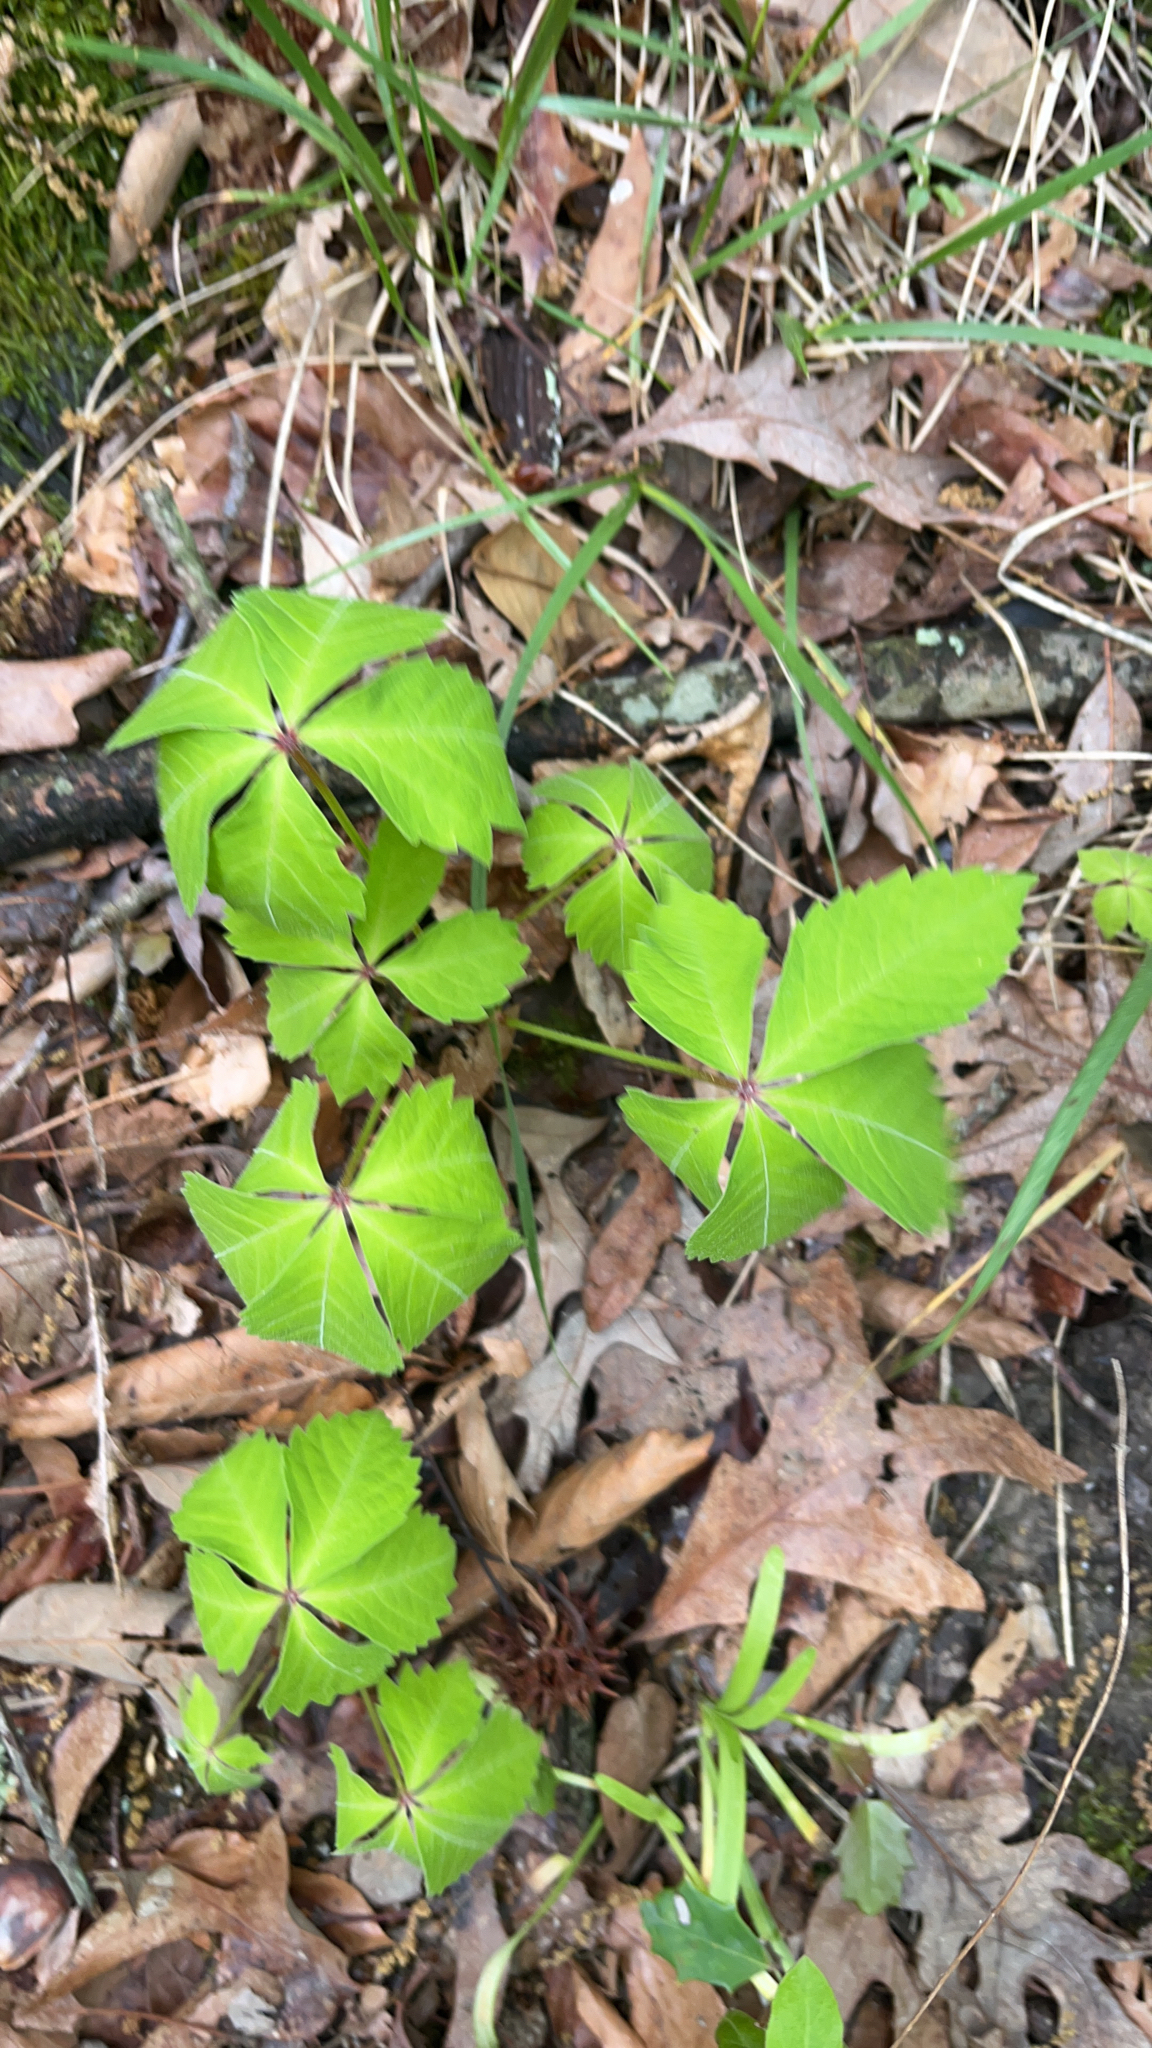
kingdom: Plantae
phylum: Tracheophyta
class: Magnoliopsida
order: Vitales
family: Vitaceae
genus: Parthenocissus
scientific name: Parthenocissus quinquefolia
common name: Virginia-creeper
